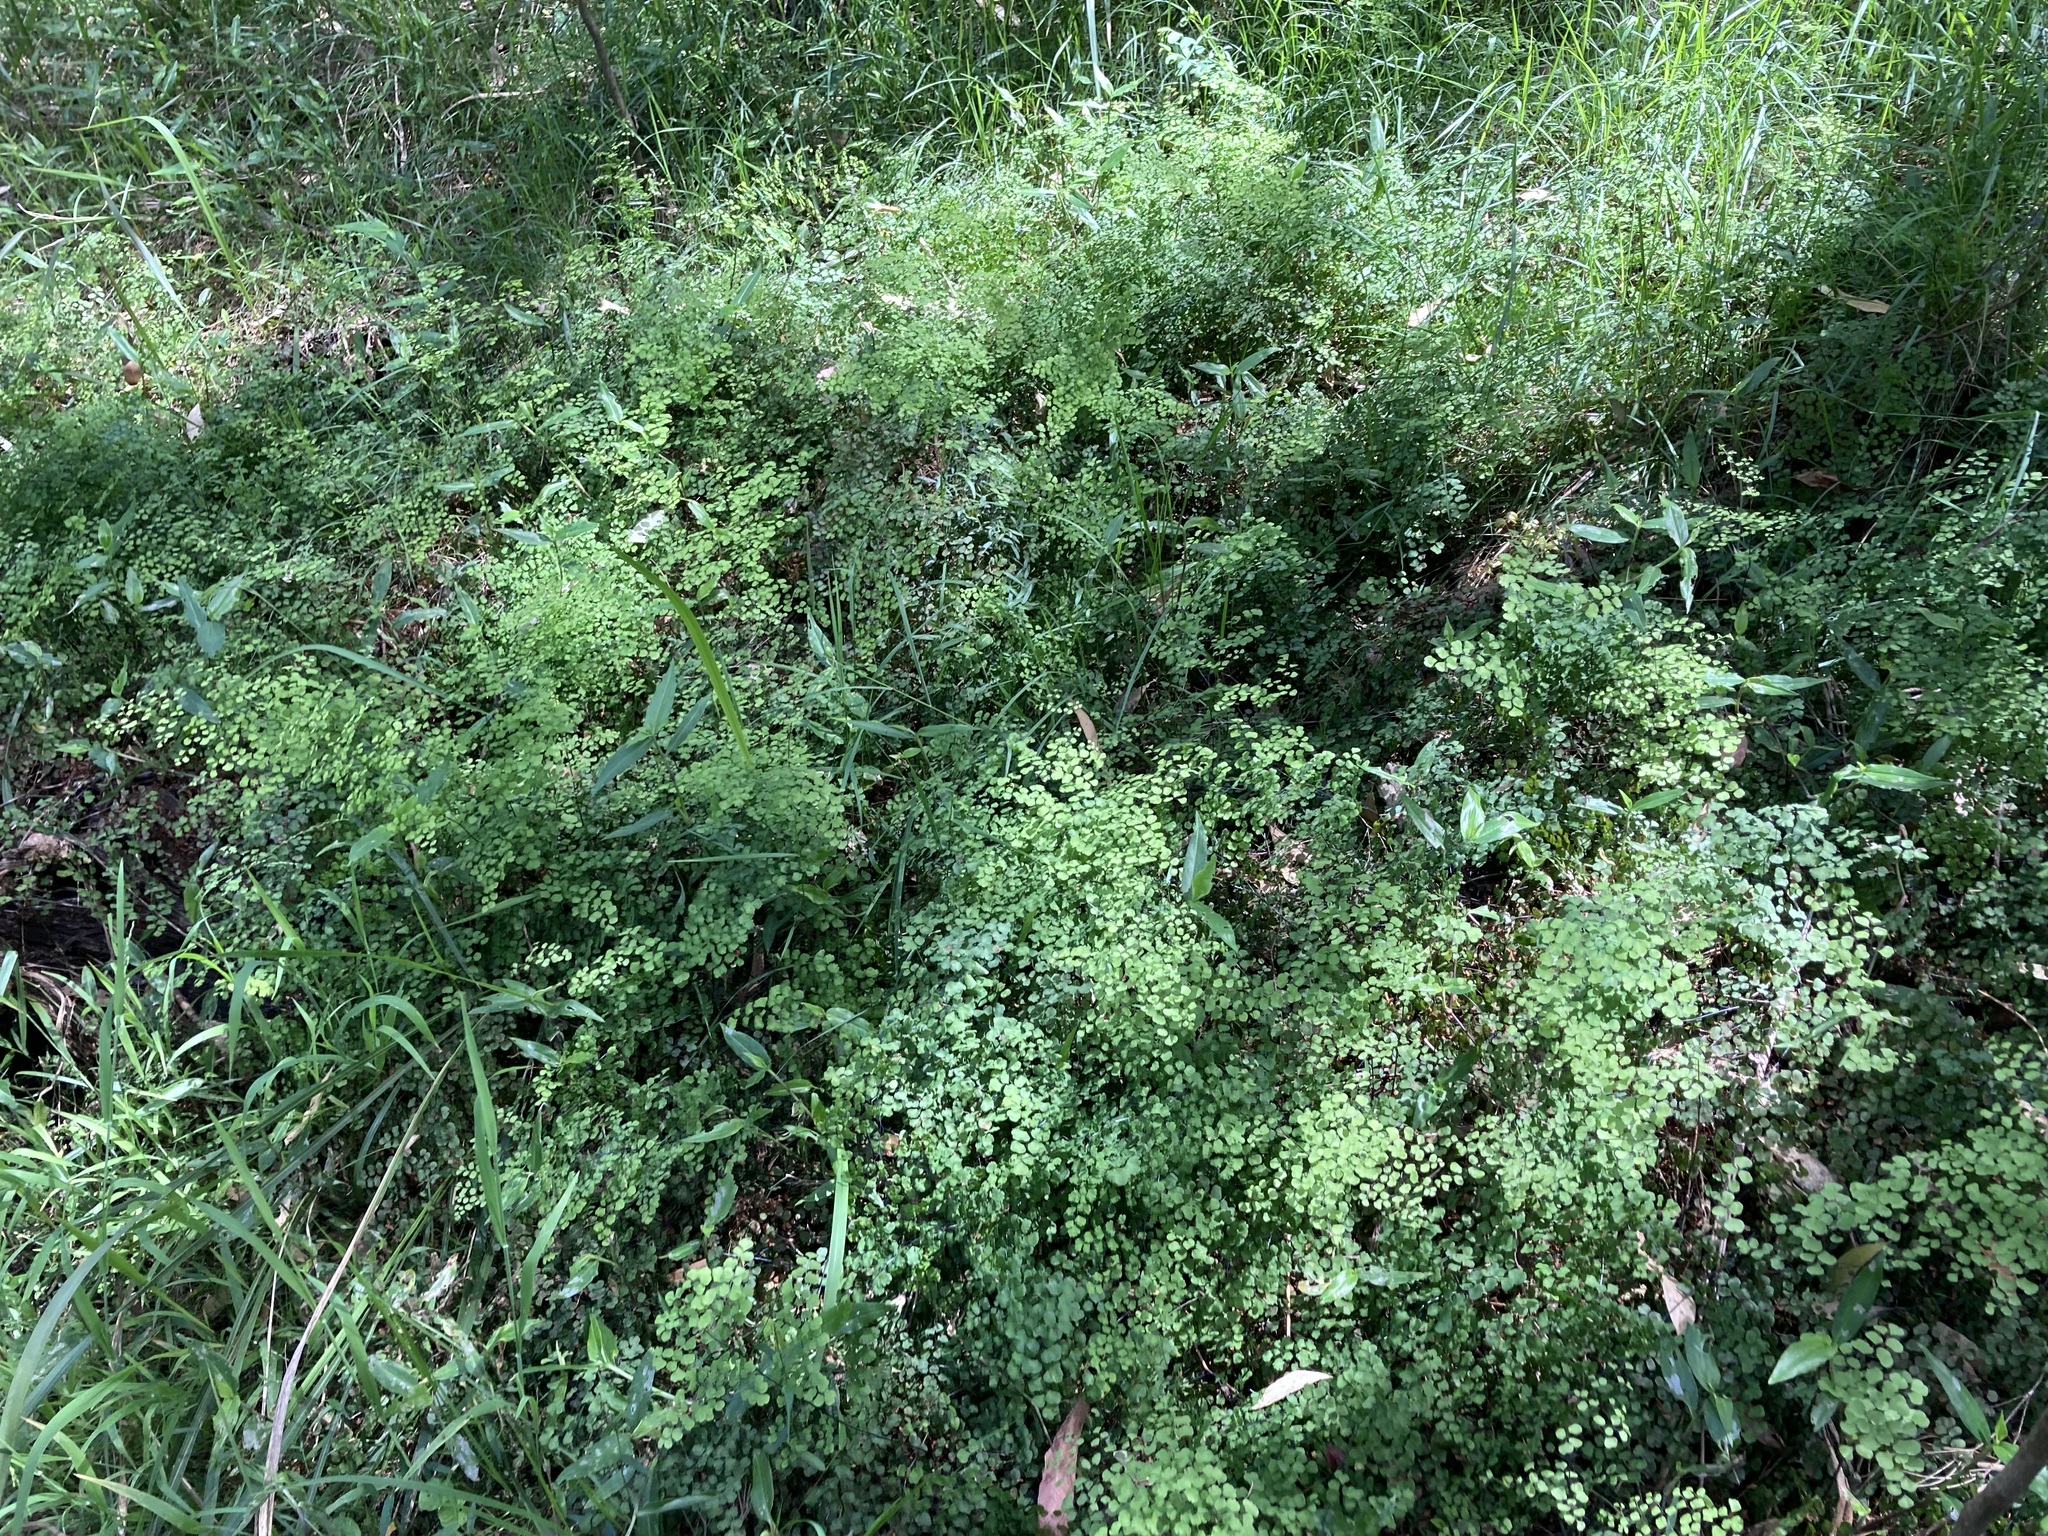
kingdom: Plantae
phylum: Tracheophyta
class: Polypodiopsida
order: Polypodiales
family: Pteridaceae
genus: Adiantum
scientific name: Adiantum aethiopicum
